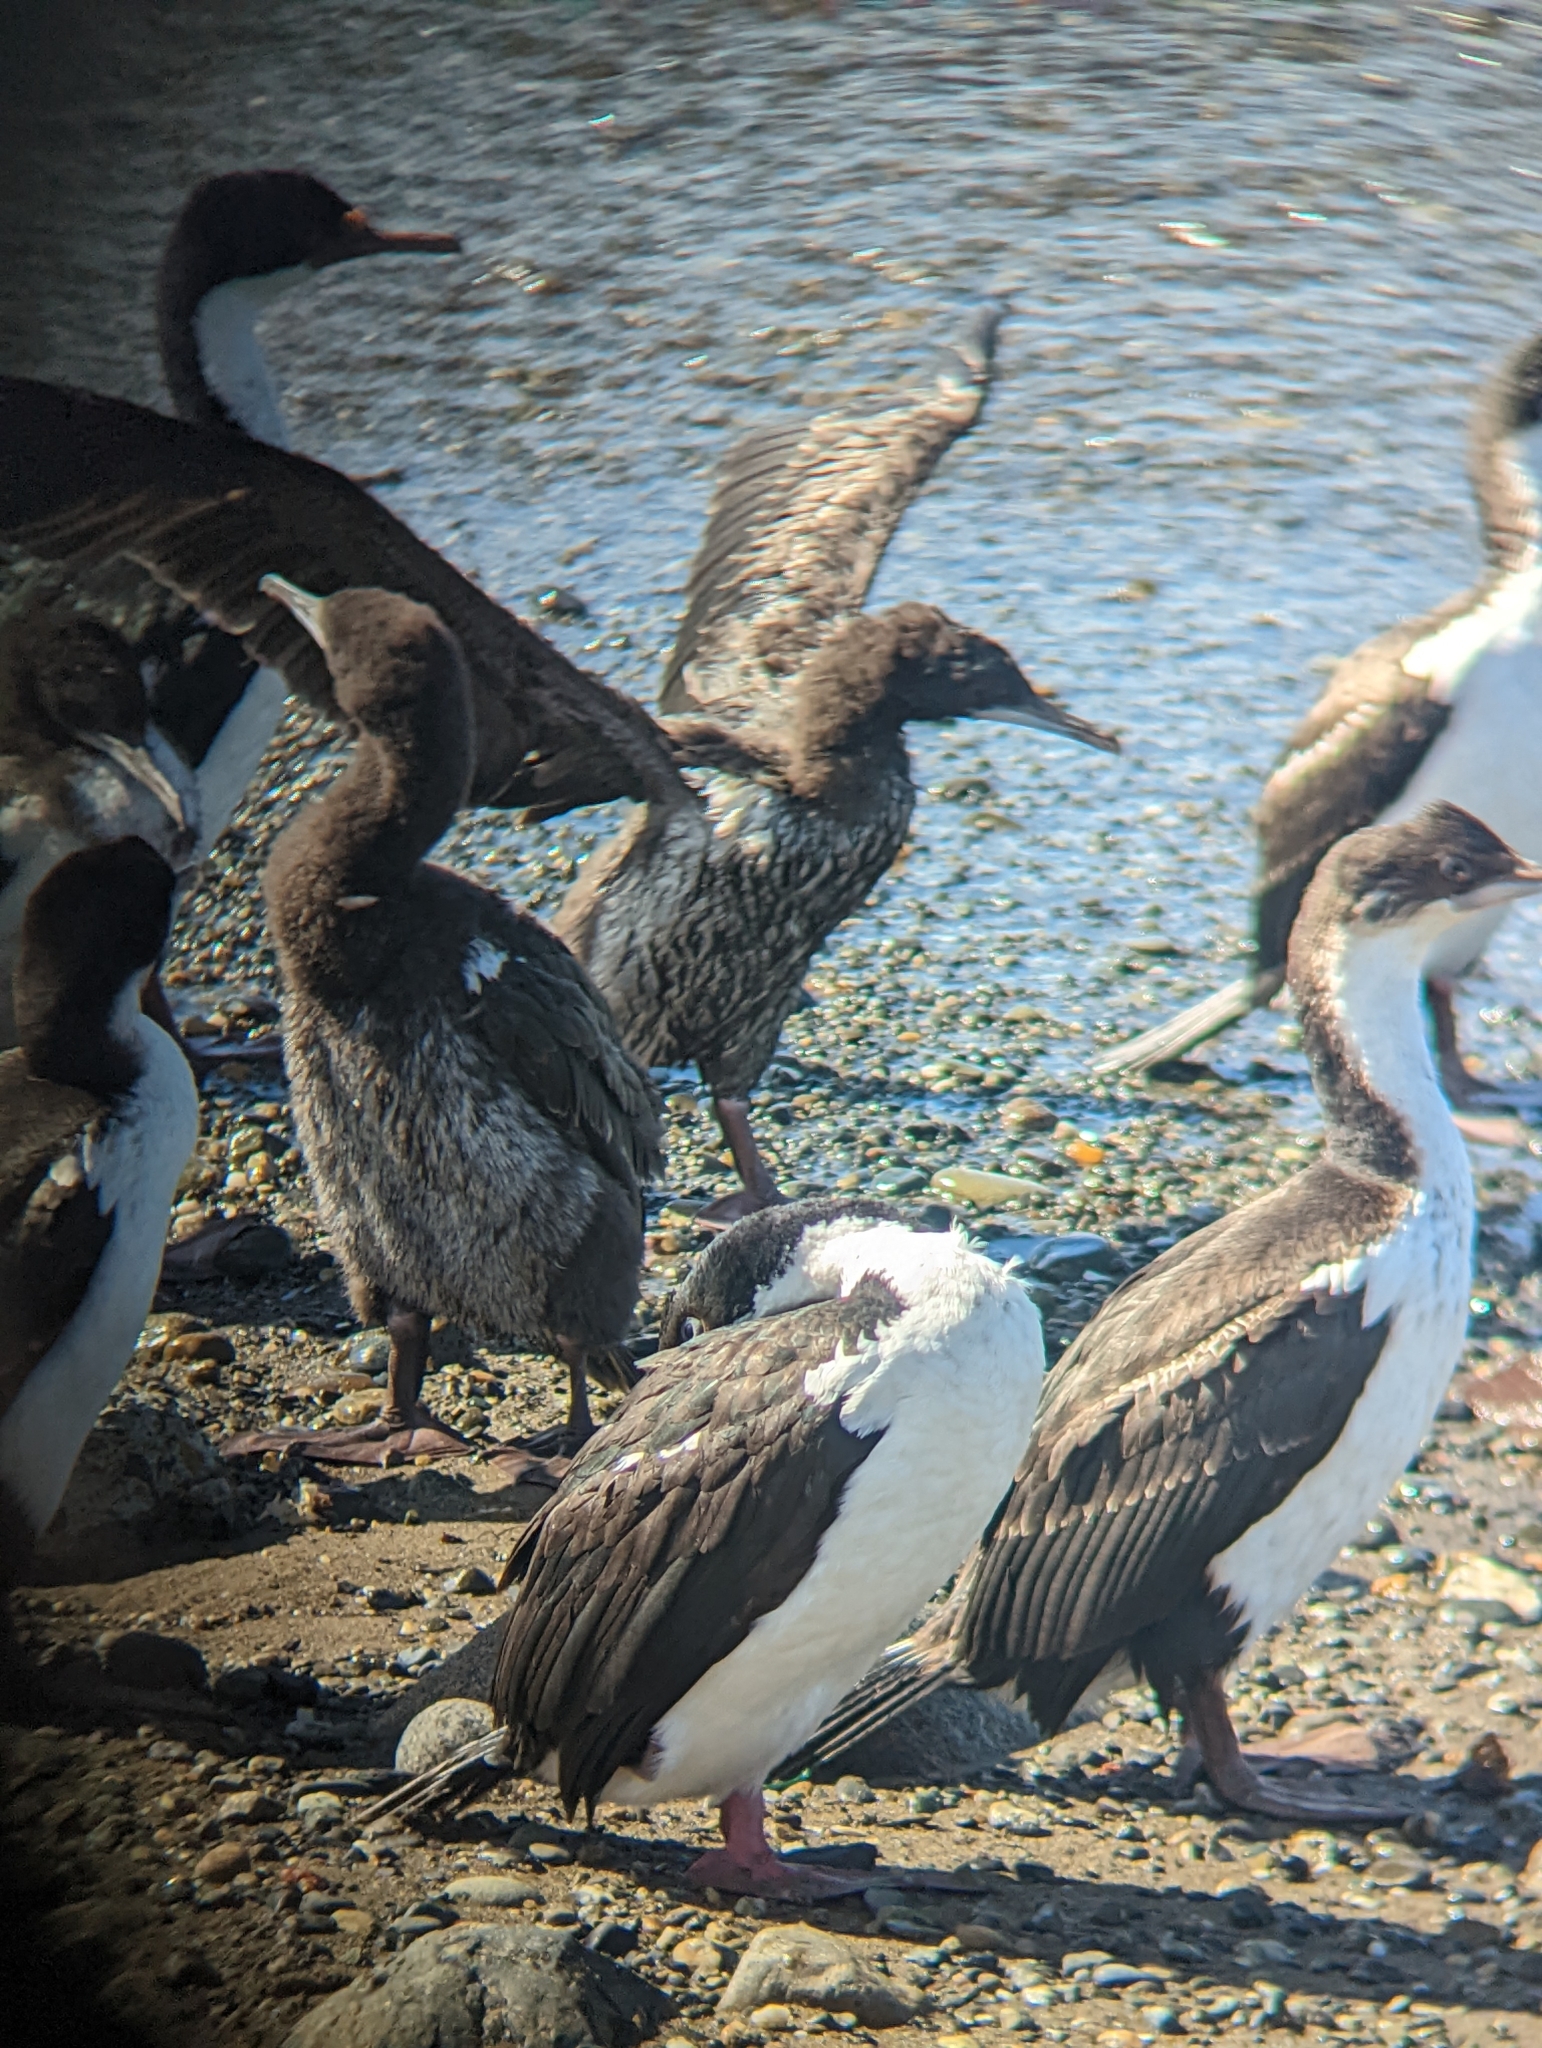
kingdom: Animalia
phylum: Chordata
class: Aves
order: Suliformes
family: Phalacrocoracidae
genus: Leucocarbo
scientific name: Leucocarbo atriceps
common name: Imperial shag
